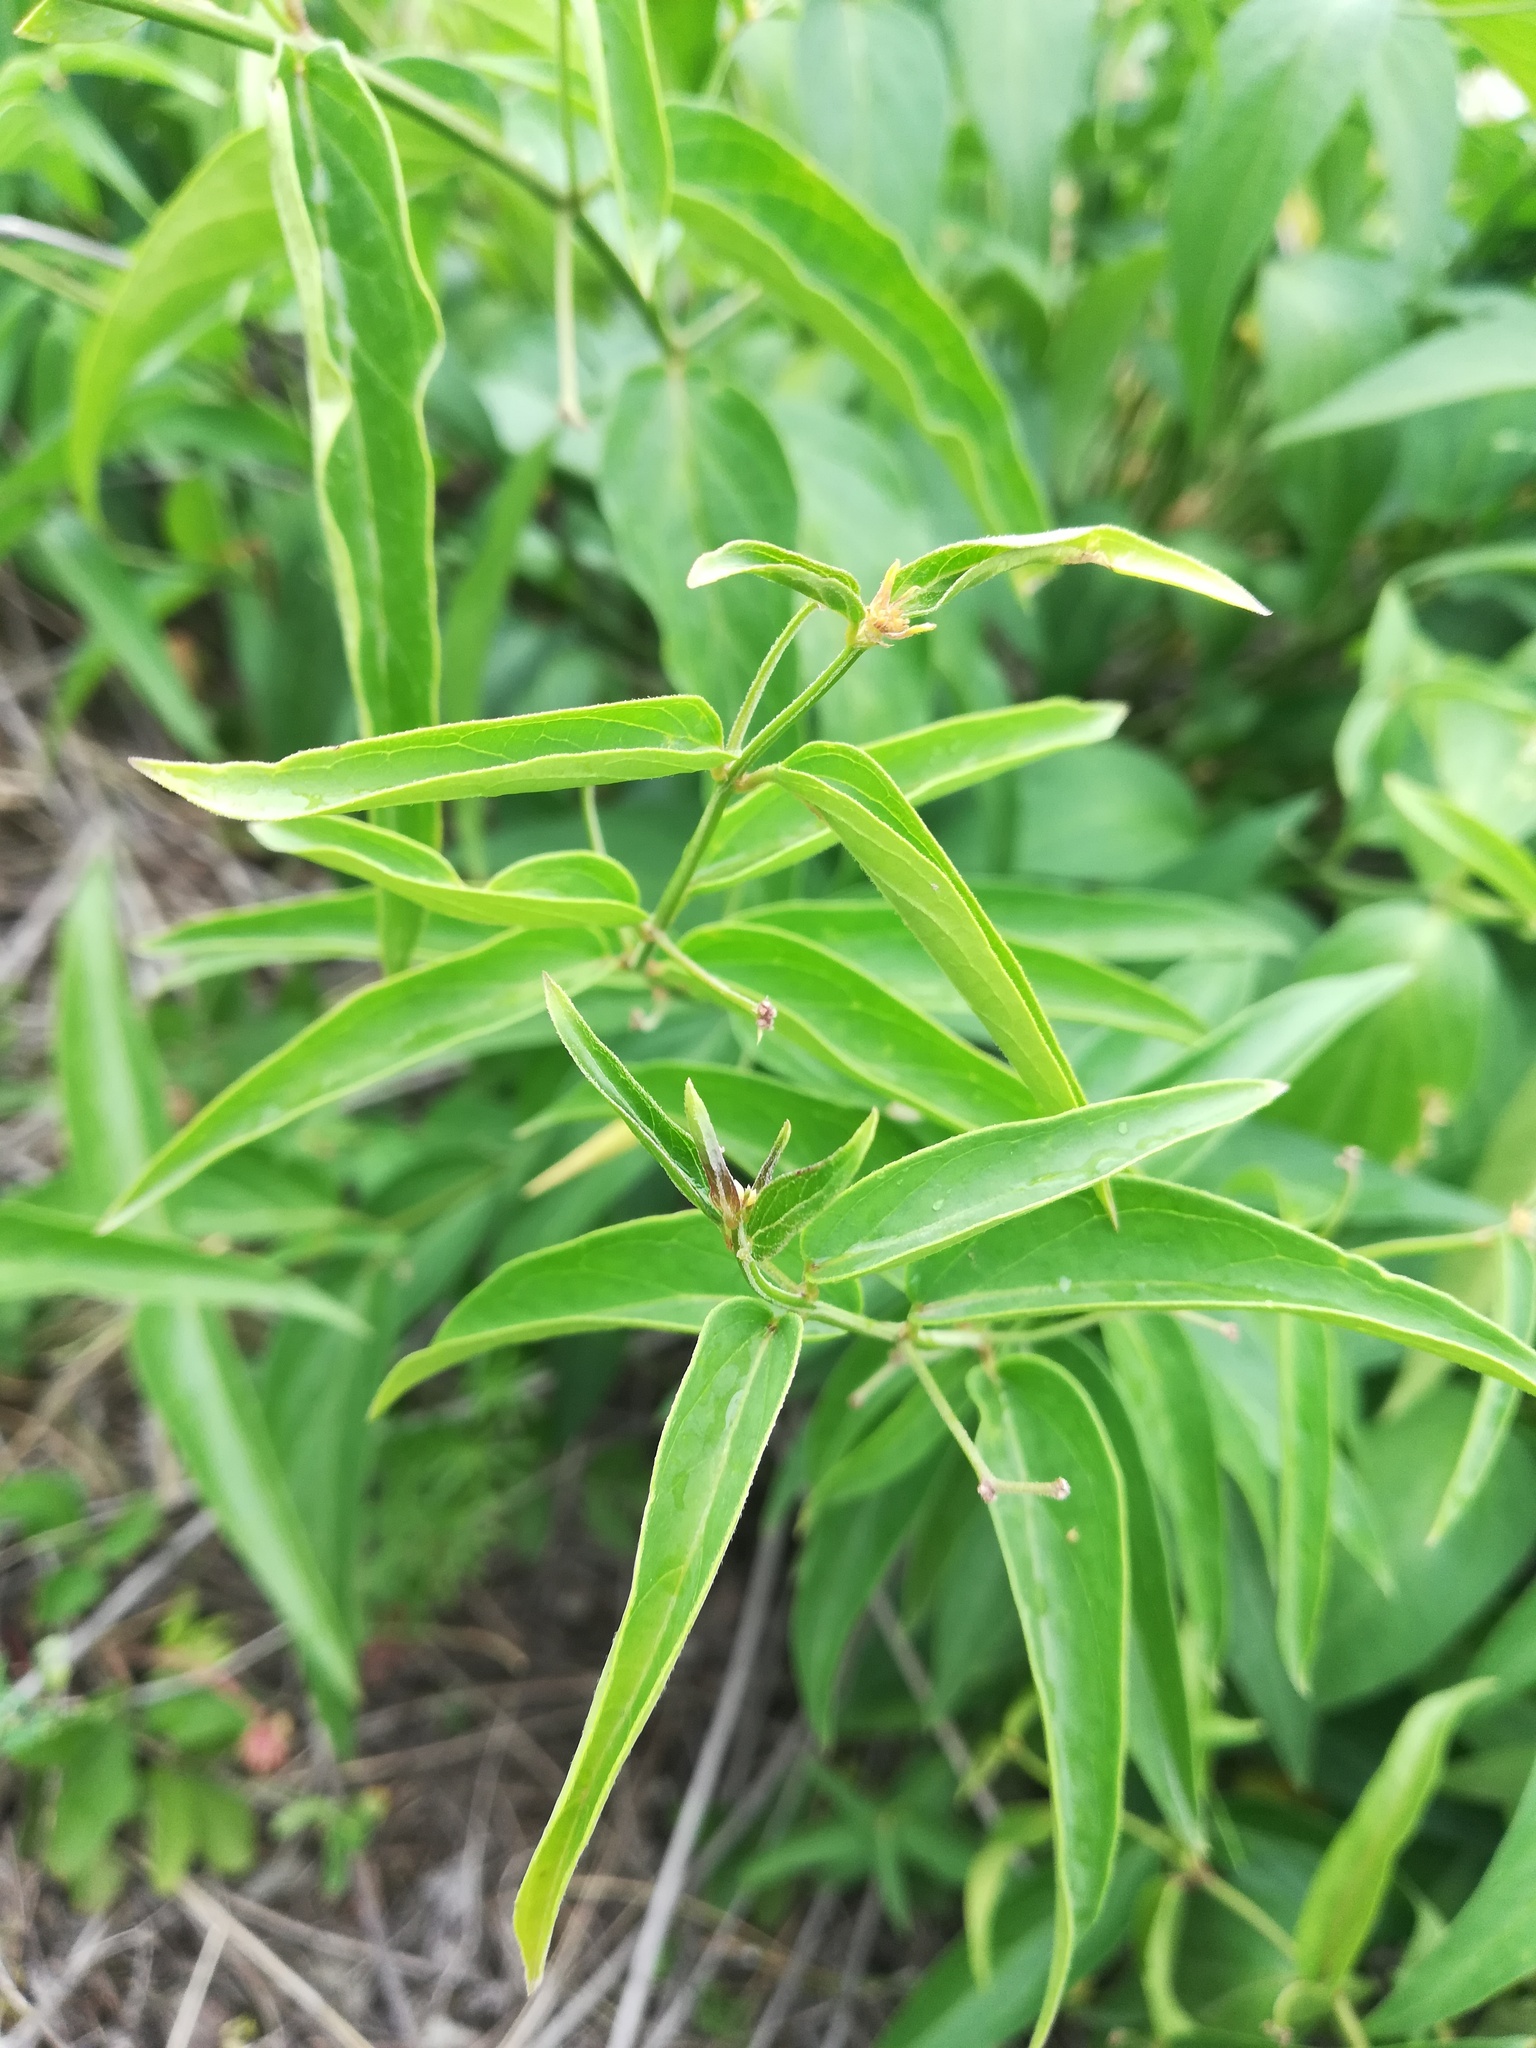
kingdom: Plantae
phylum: Tracheophyta
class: Magnoliopsida
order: Gentianales
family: Apocynaceae
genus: Vincetoxicum
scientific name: Vincetoxicum hirundinaria
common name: White swallowwort
